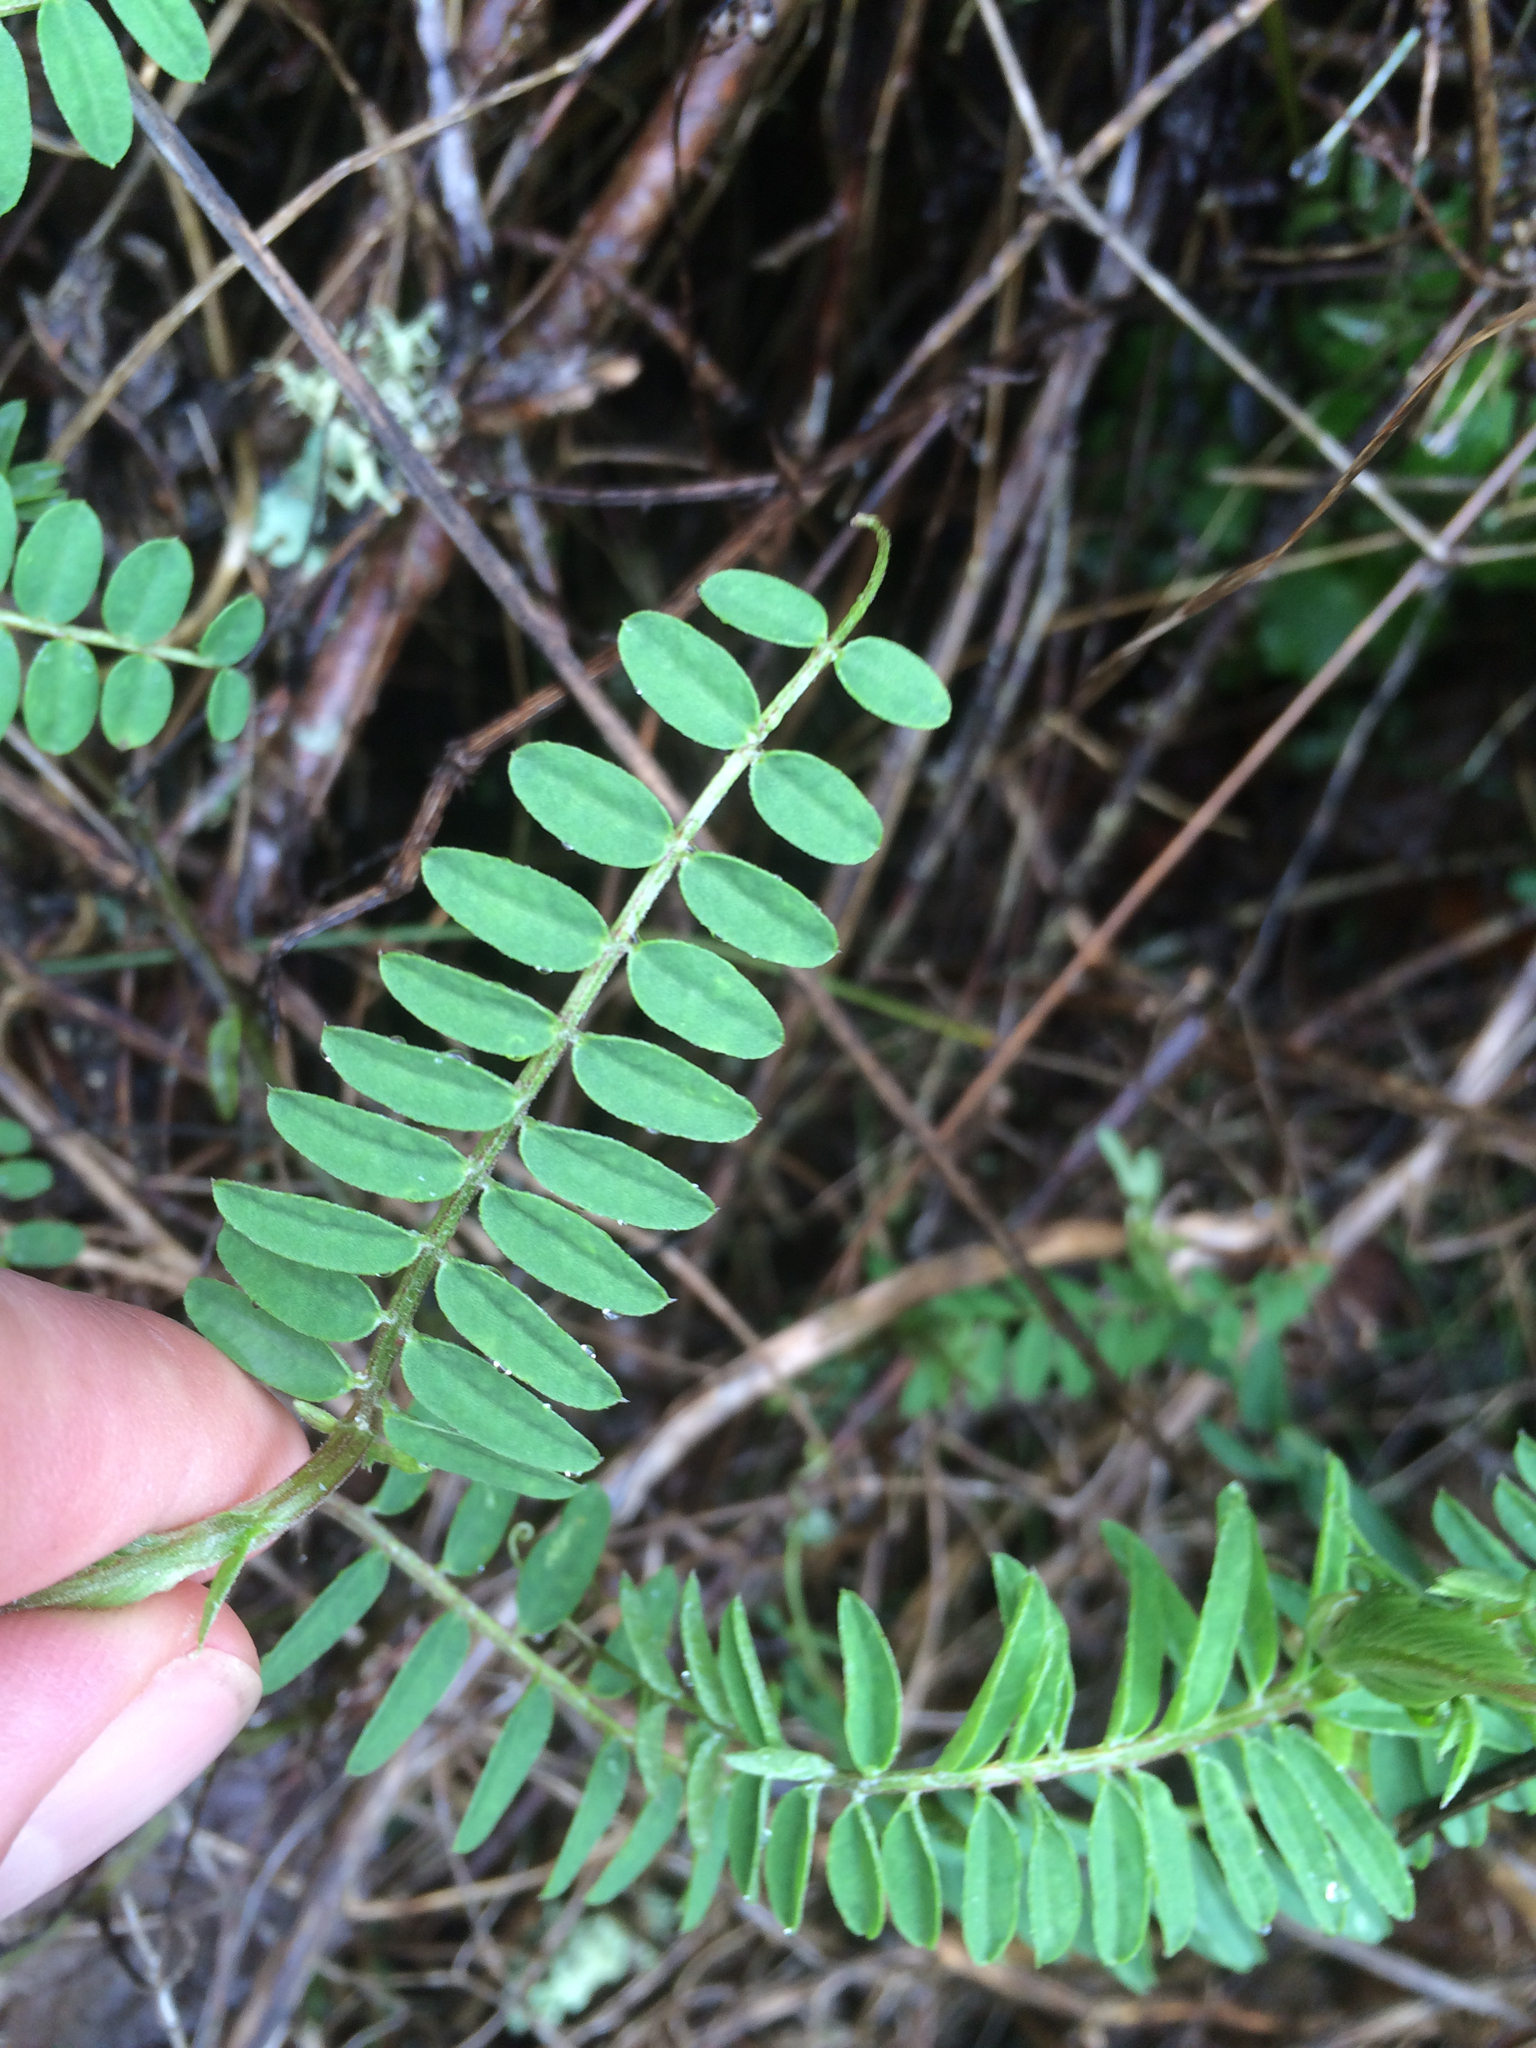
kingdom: Plantae
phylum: Tracheophyta
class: Magnoliopsida
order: Fabales
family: Fabaceae
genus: Vicia
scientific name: Vicia
